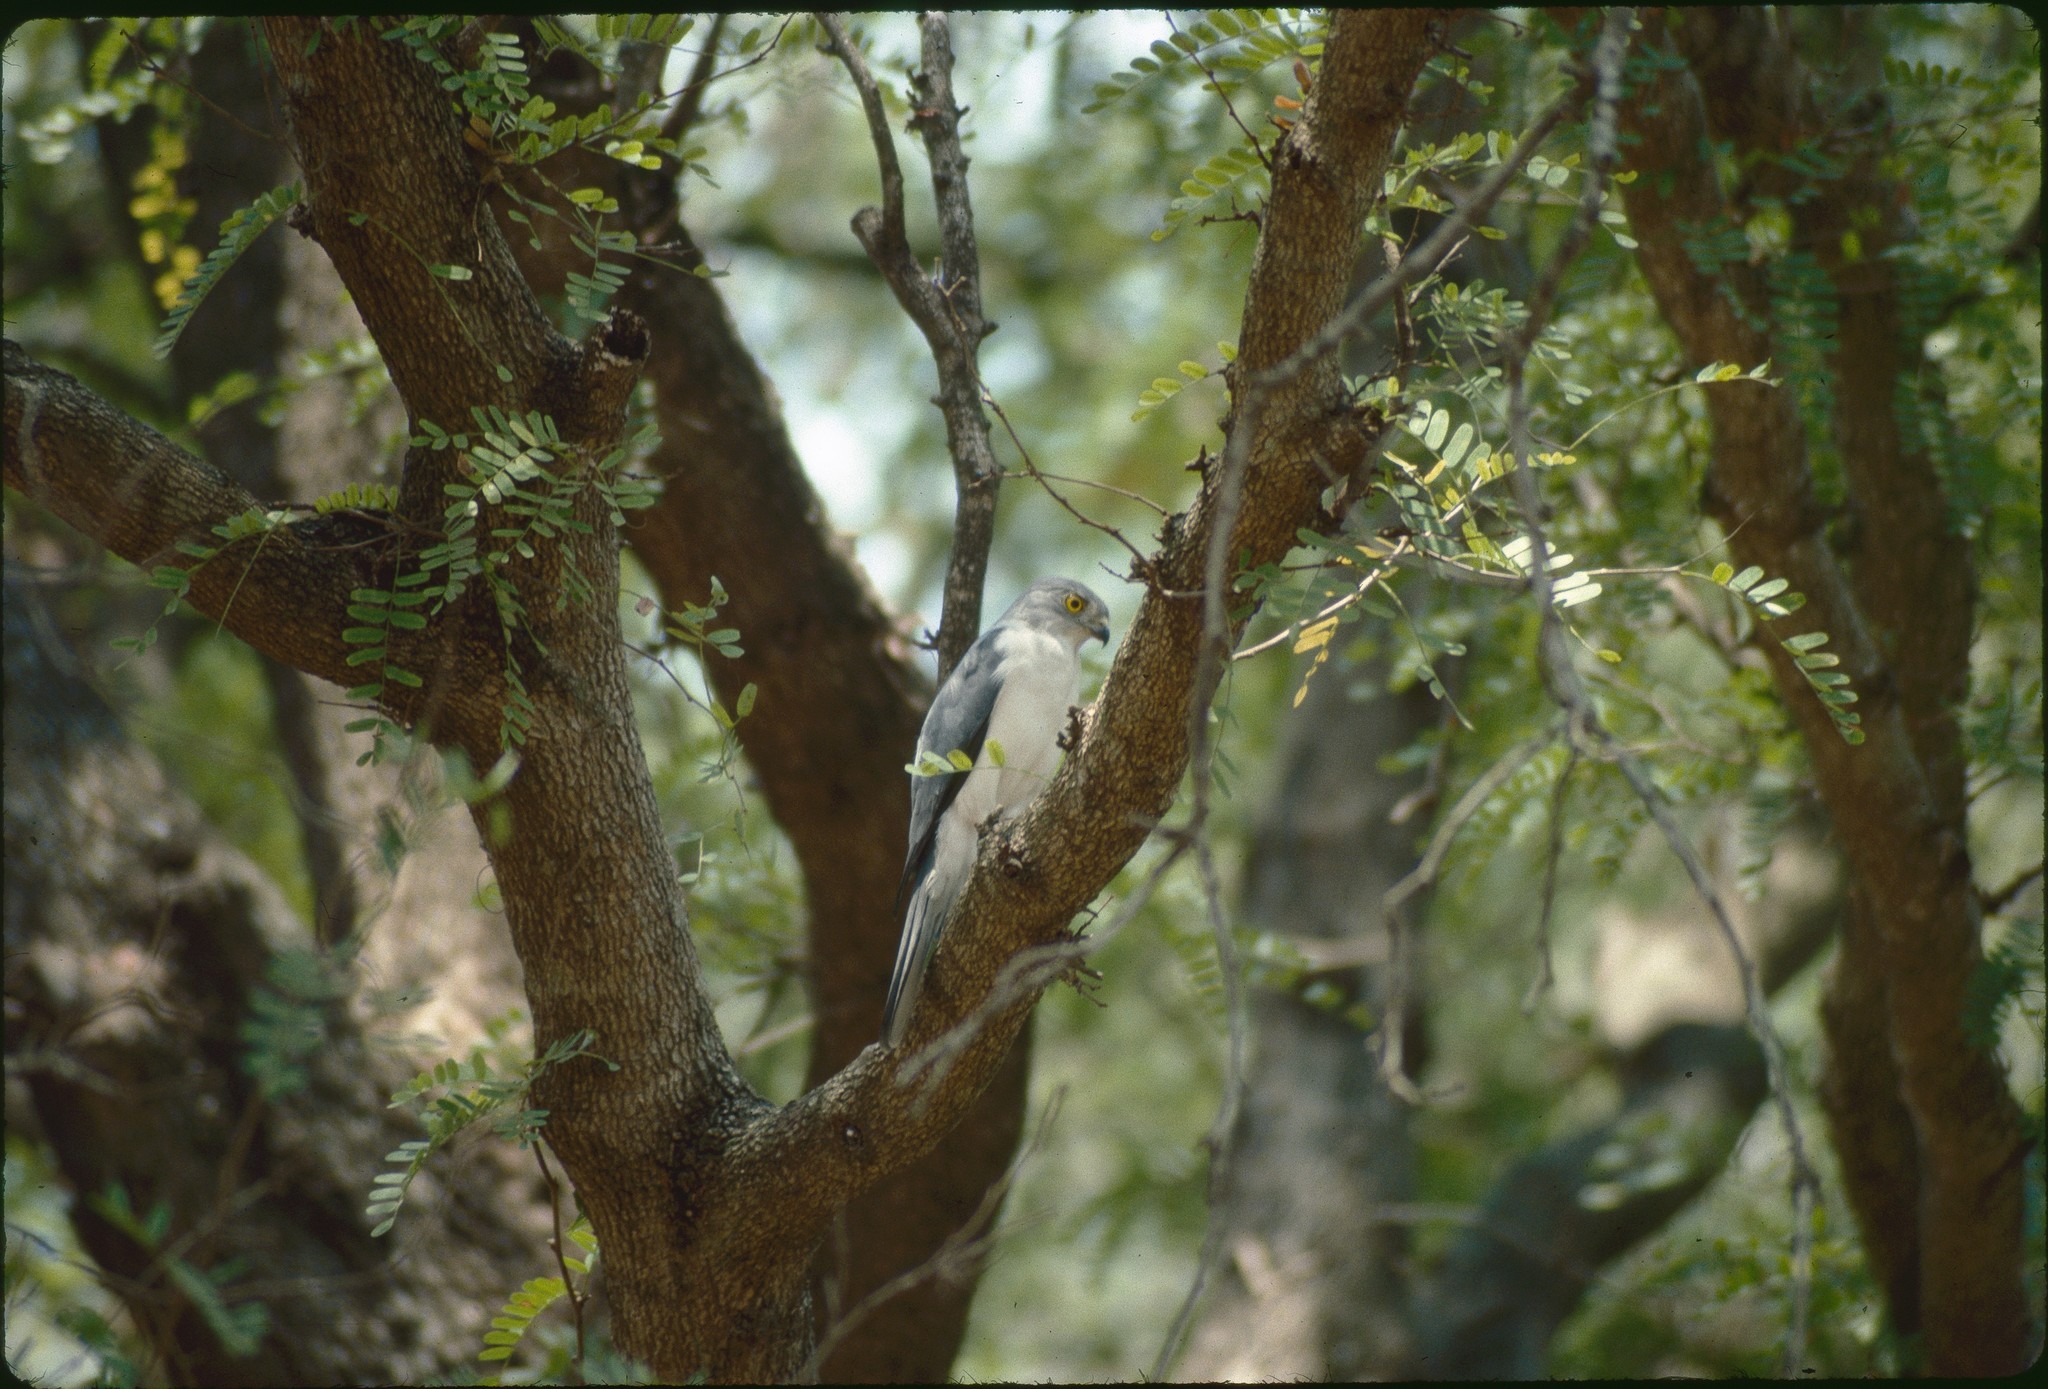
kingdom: Animalia
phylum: Chordata
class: Aves
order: Accipitriformes
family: Accipitridae
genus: Accipiter
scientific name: Accipiter francesiae
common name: Frances's sparrowhawk
